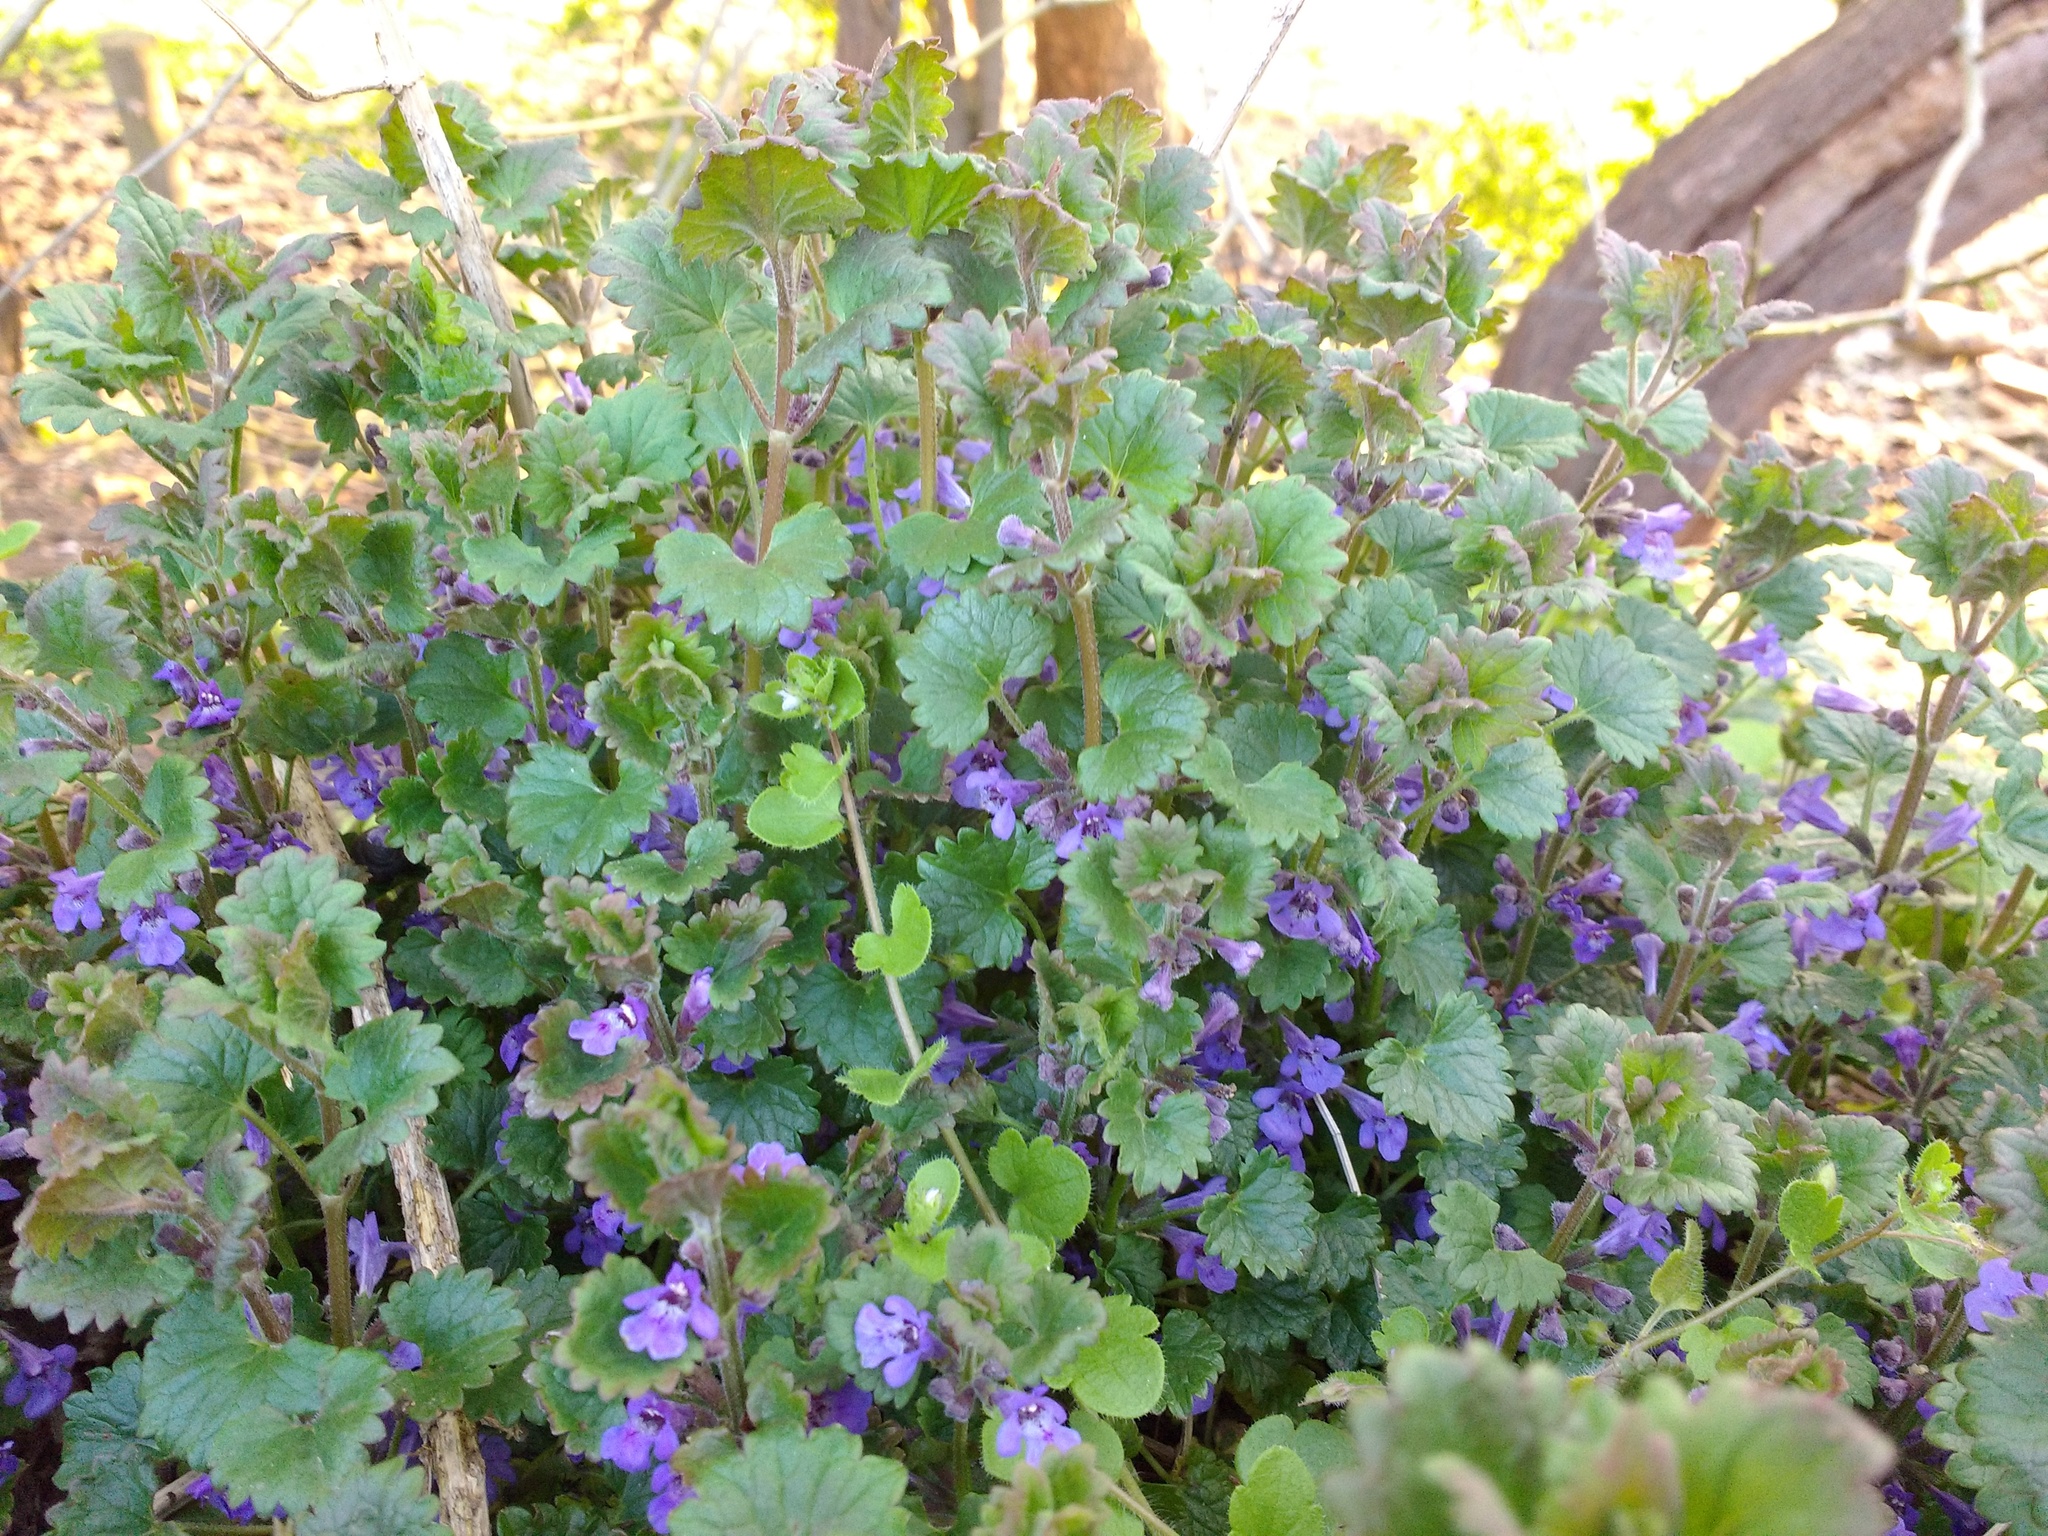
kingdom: Plantae
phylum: Tracheophyta
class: Magnoliopsida
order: Lamiales
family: Lamiaceae
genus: Glechoma
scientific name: Glechoma hederacea
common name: Ground ivy
